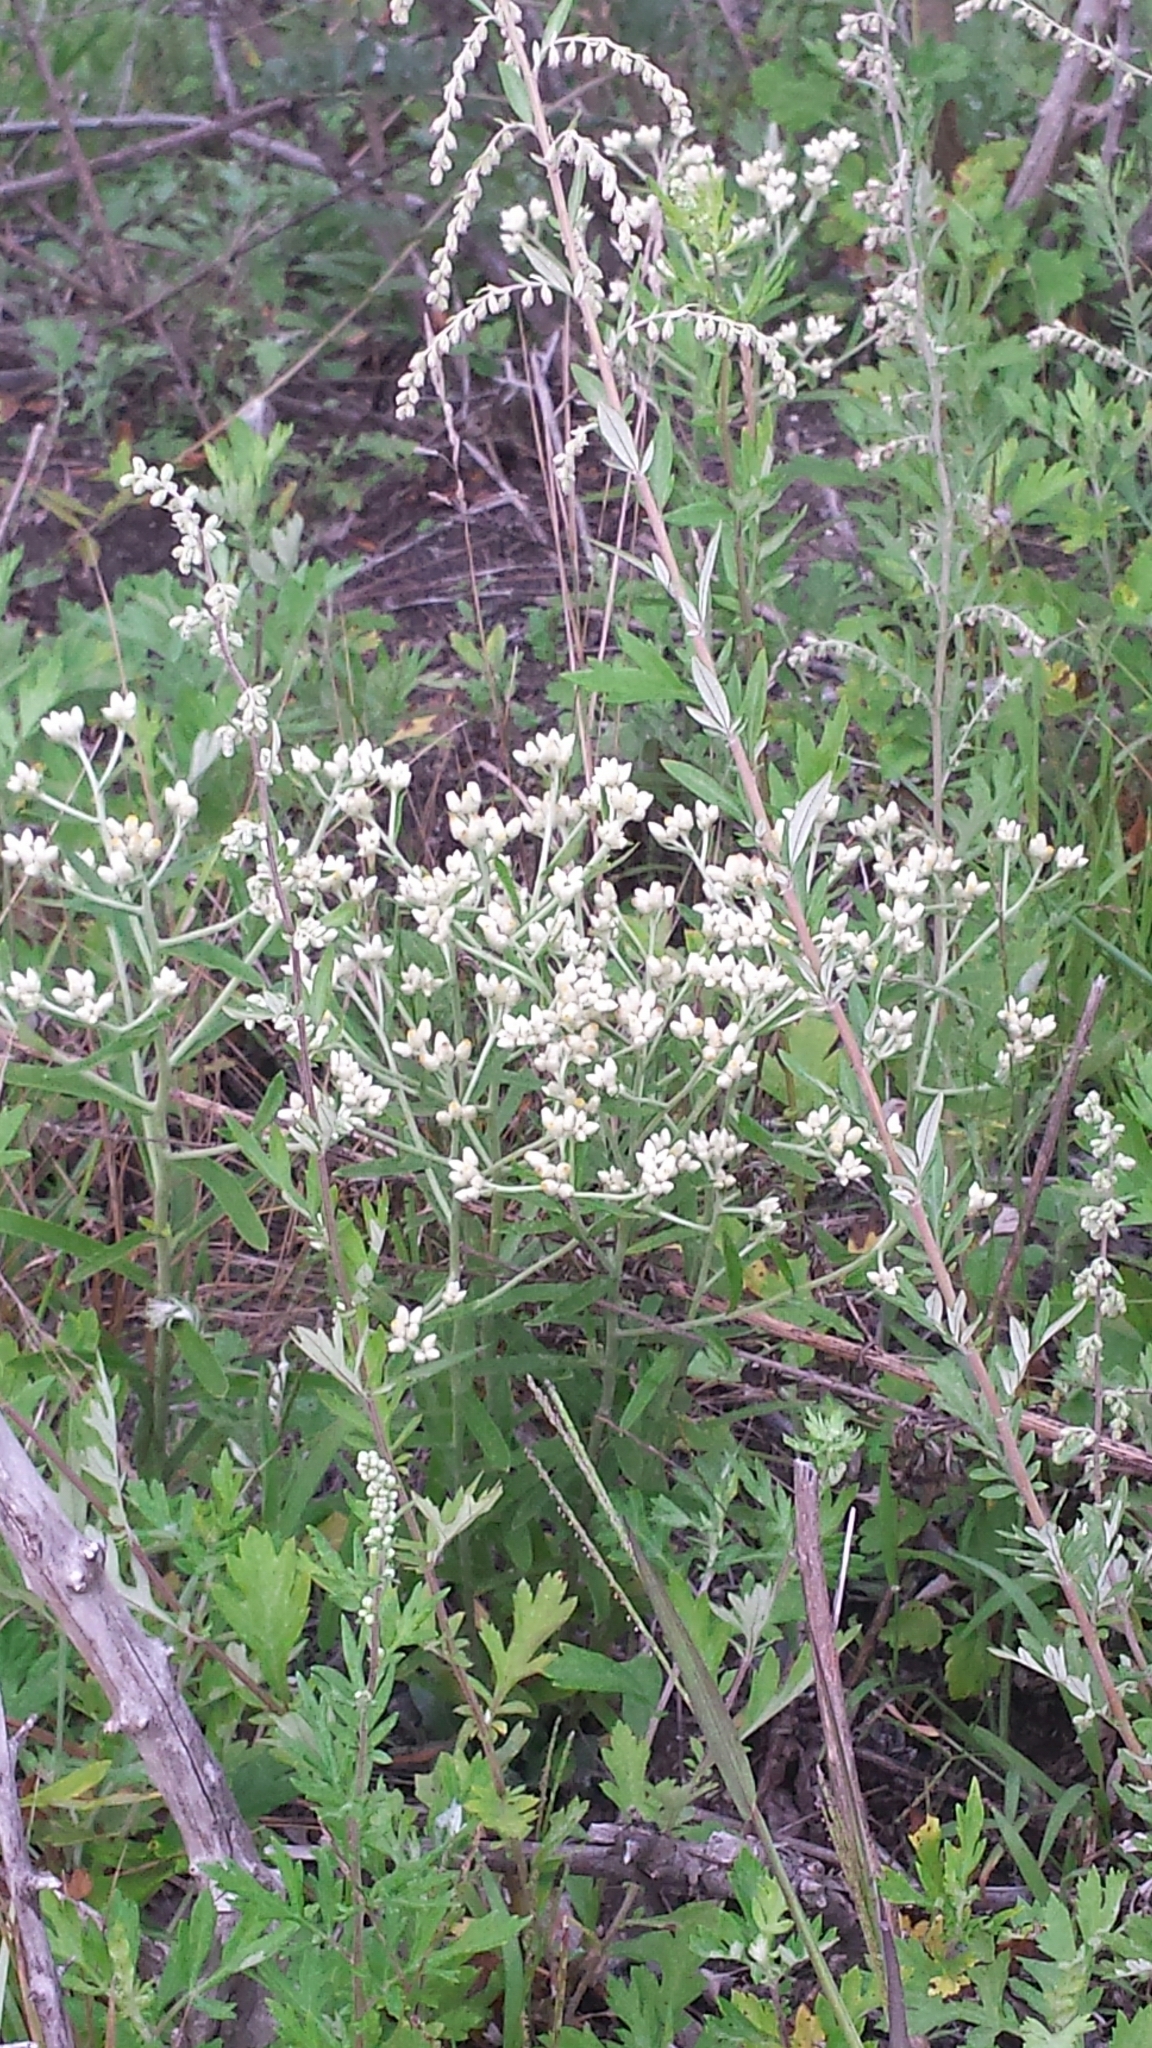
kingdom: Plantae
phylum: Tracheophyta
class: Magnoliopsida
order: Asterales
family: Asteraceae
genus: Pseudognaphalium
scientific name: Pseudognaphalium obtusifolium
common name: Eastern rabbit-tobacco
